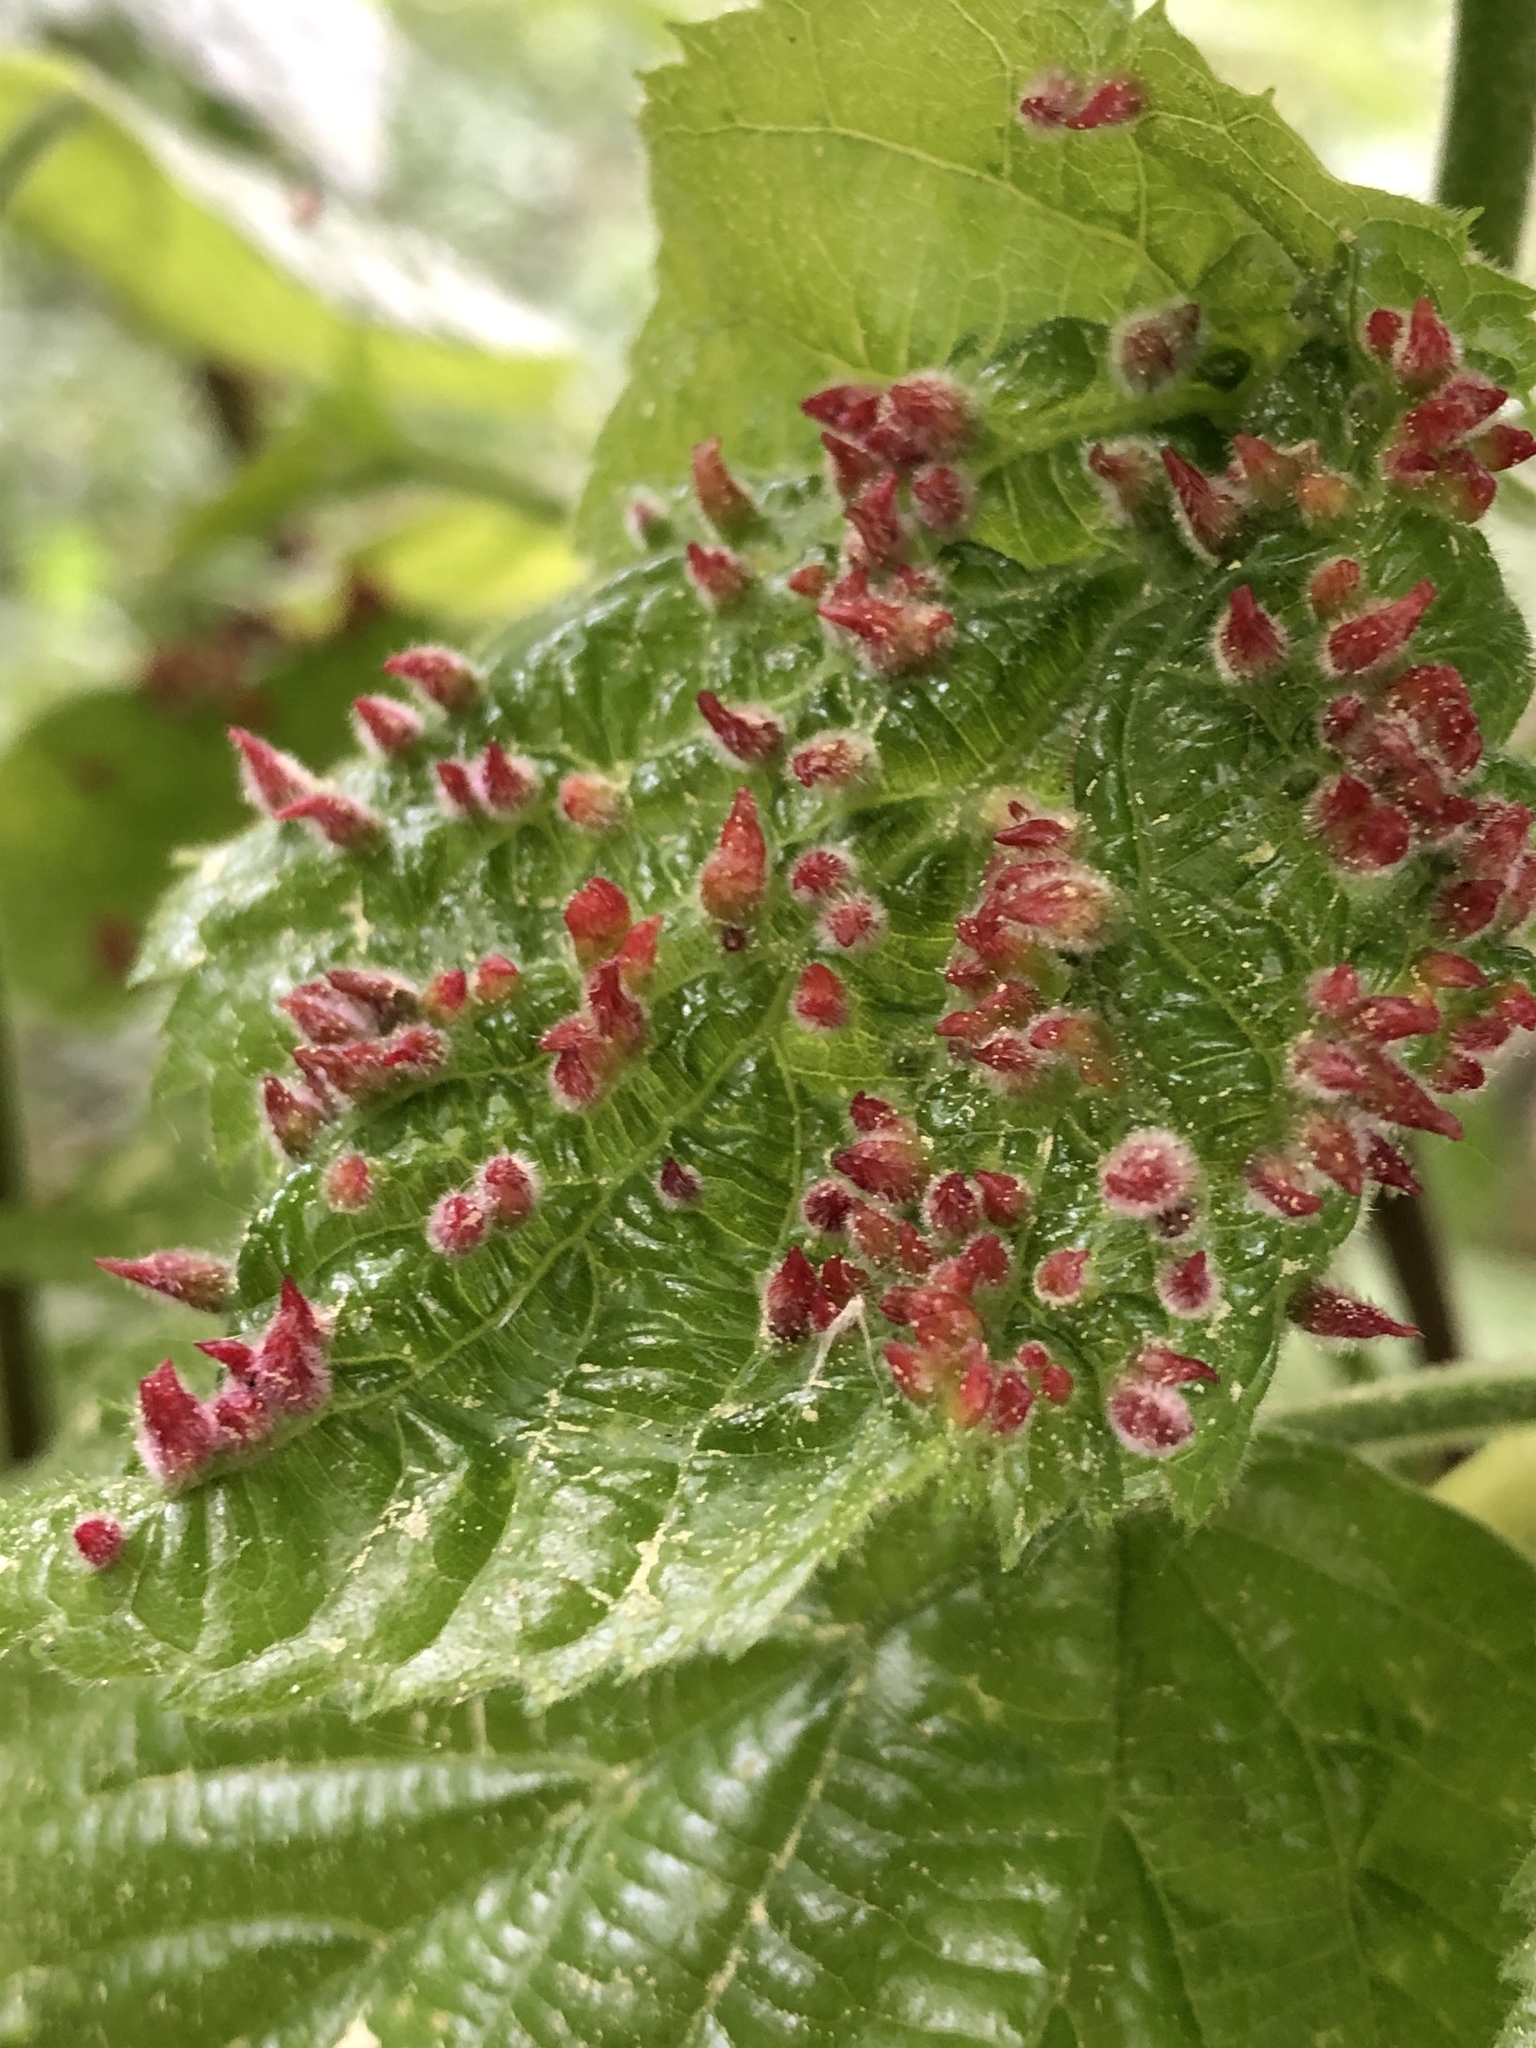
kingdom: Animalia
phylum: Arthropoda
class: Arachnida
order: Trombidiformes
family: Eriophyidae
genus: Eriophyes
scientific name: Eriophyes tiliae
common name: Red nail gall mite
